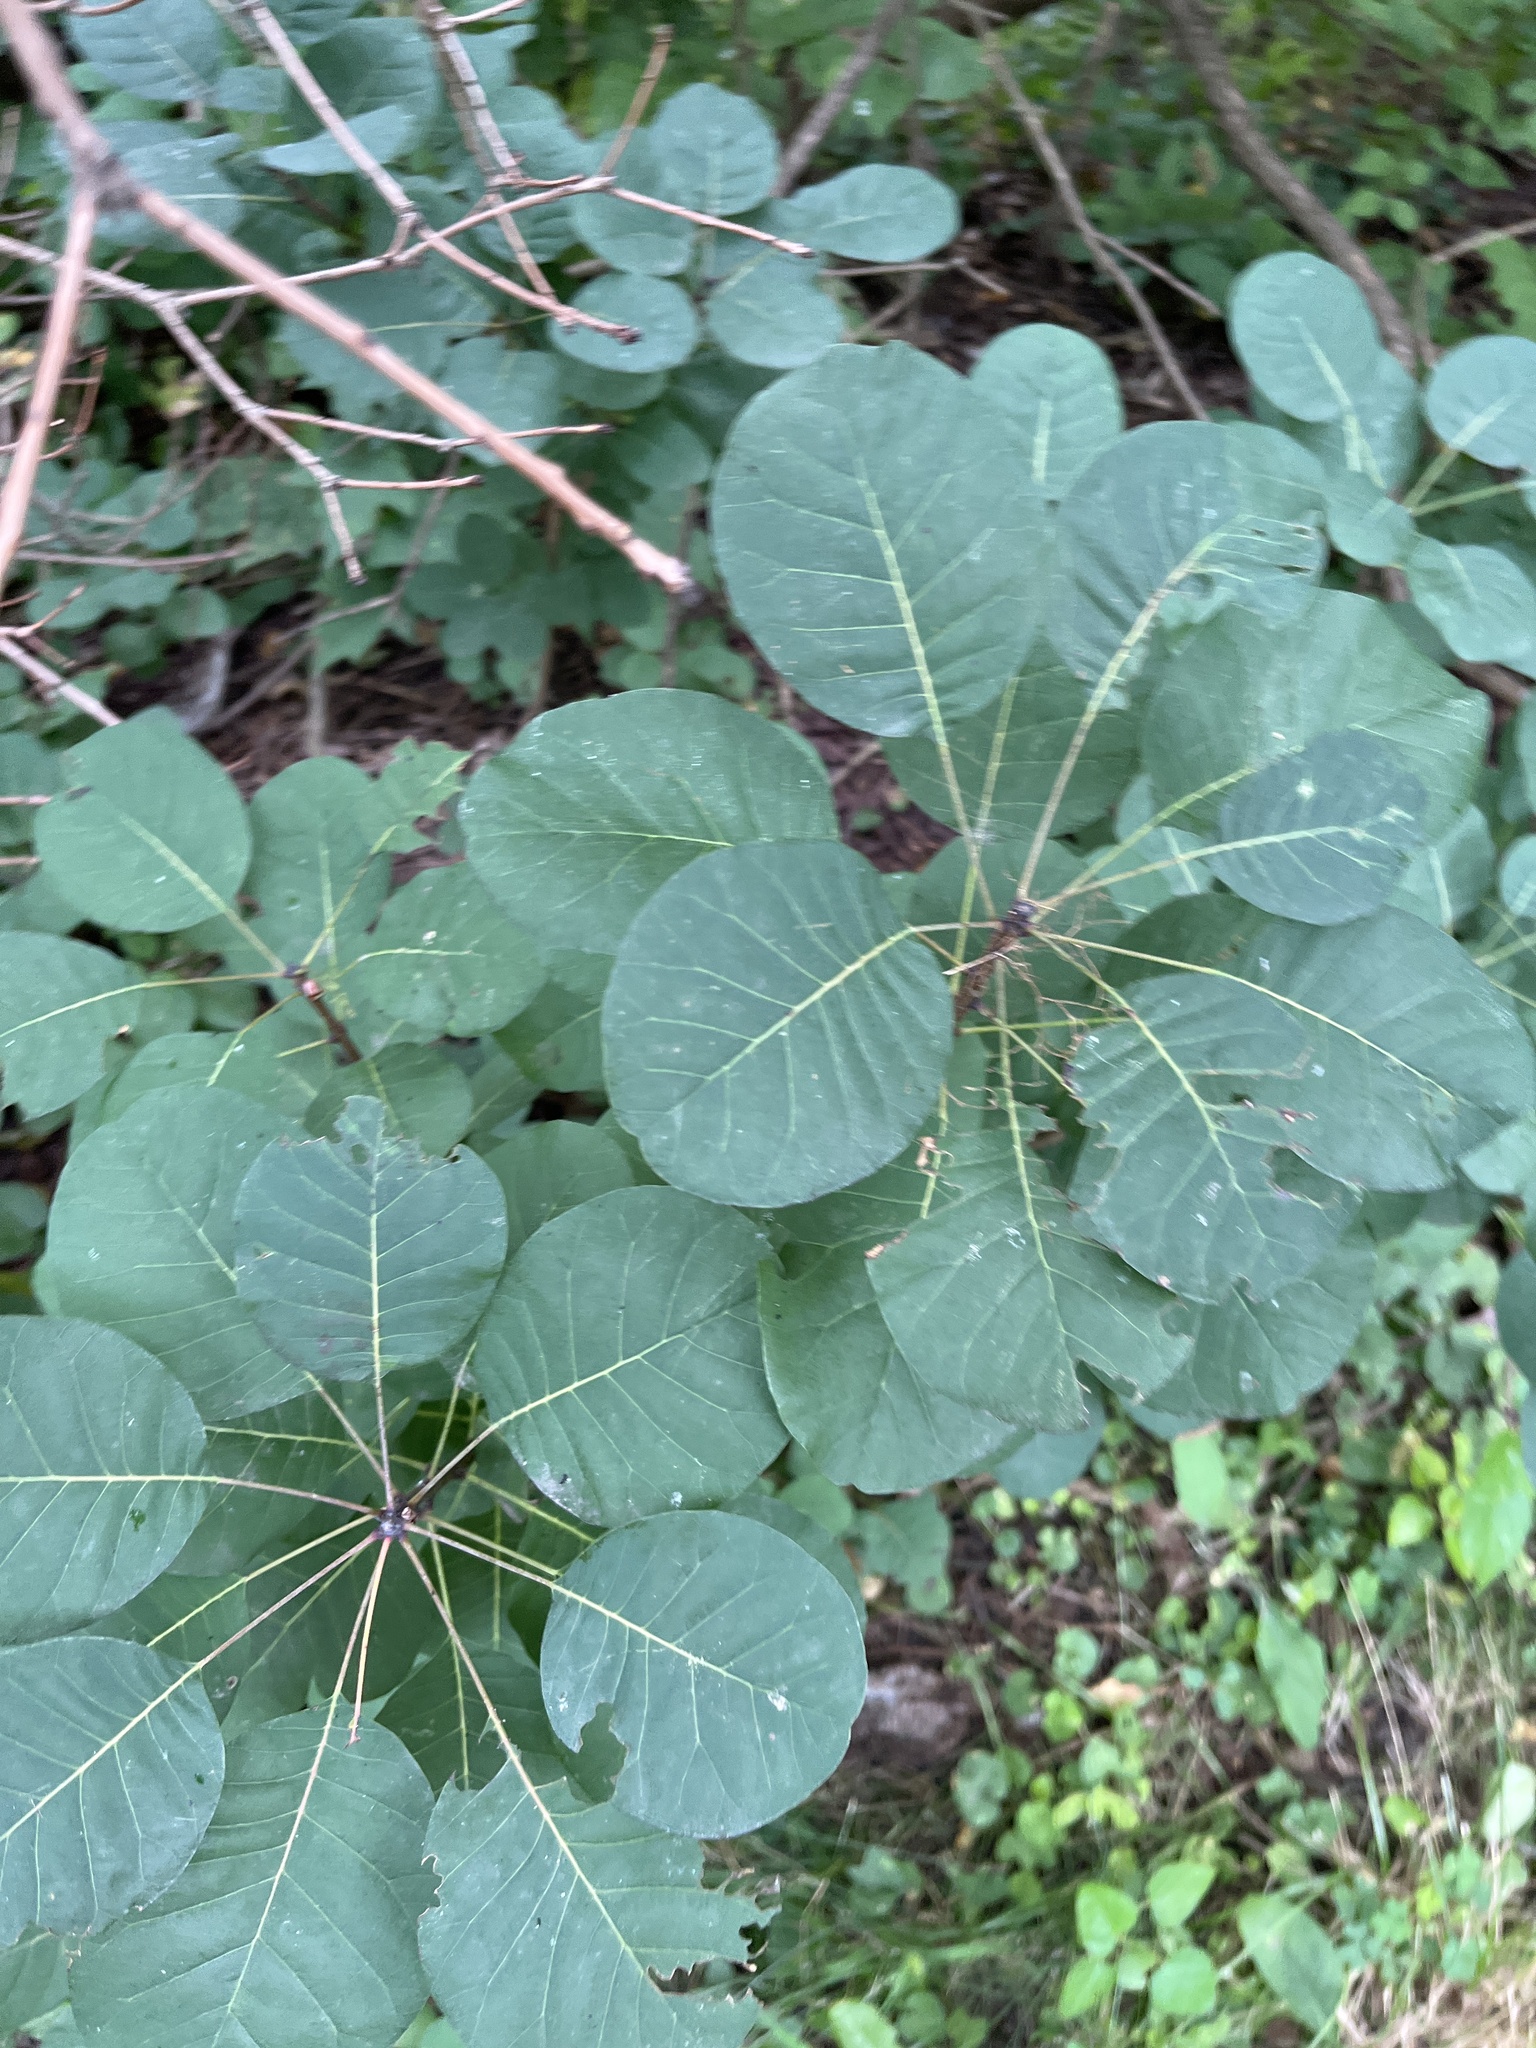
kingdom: Plantae
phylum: Tracheophyta
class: Magnoliopsida
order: Sapindales
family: Anacardiaceae
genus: Cotinus
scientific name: Cotinus coggygria
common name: Smoke-tree
